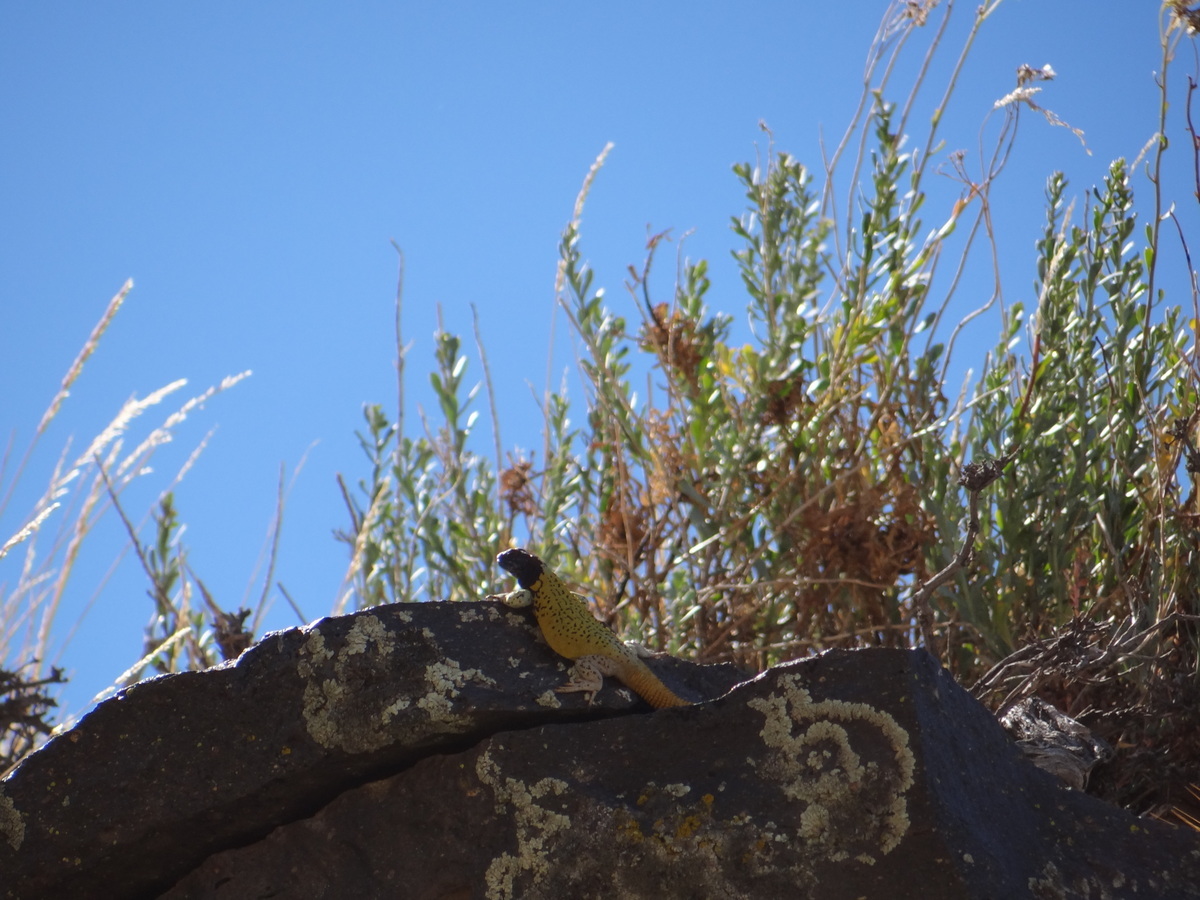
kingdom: Animalia
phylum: Chordata
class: Squamata
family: Liolaemidae
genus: Phymaturus
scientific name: Phymaturus verdugo
